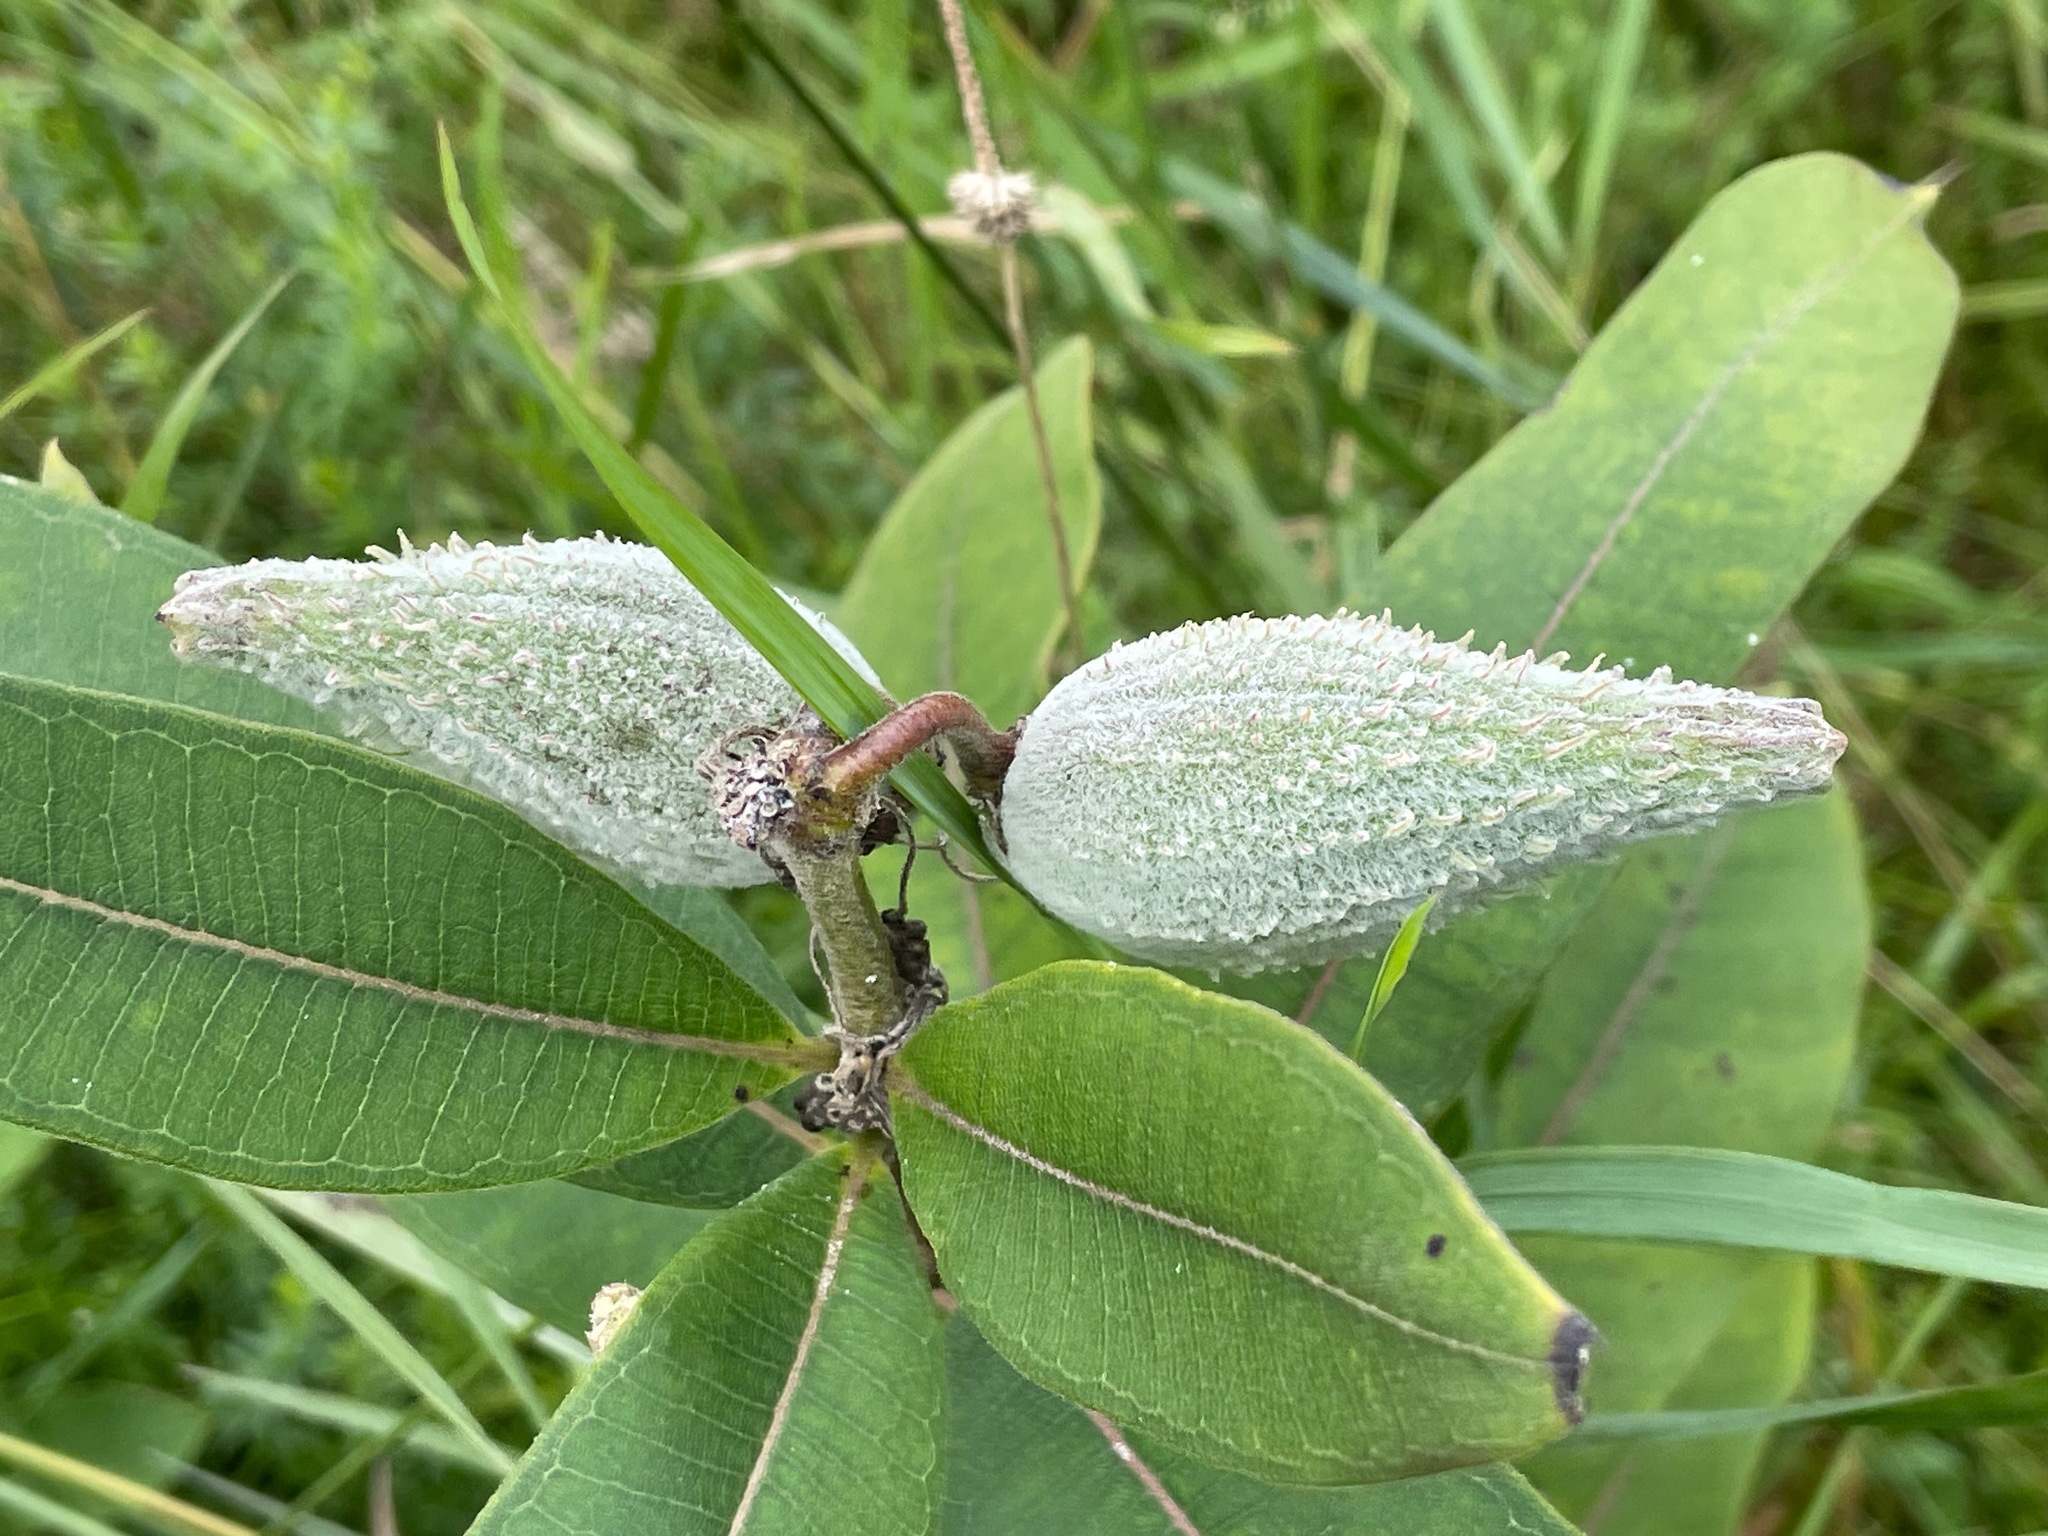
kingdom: Plantae
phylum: Tracheophyta
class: Magnoliopsida
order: Gentianales
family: Apocynaceae
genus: Asclepias
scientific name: Asclepias syriaca
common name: Common milkweed
